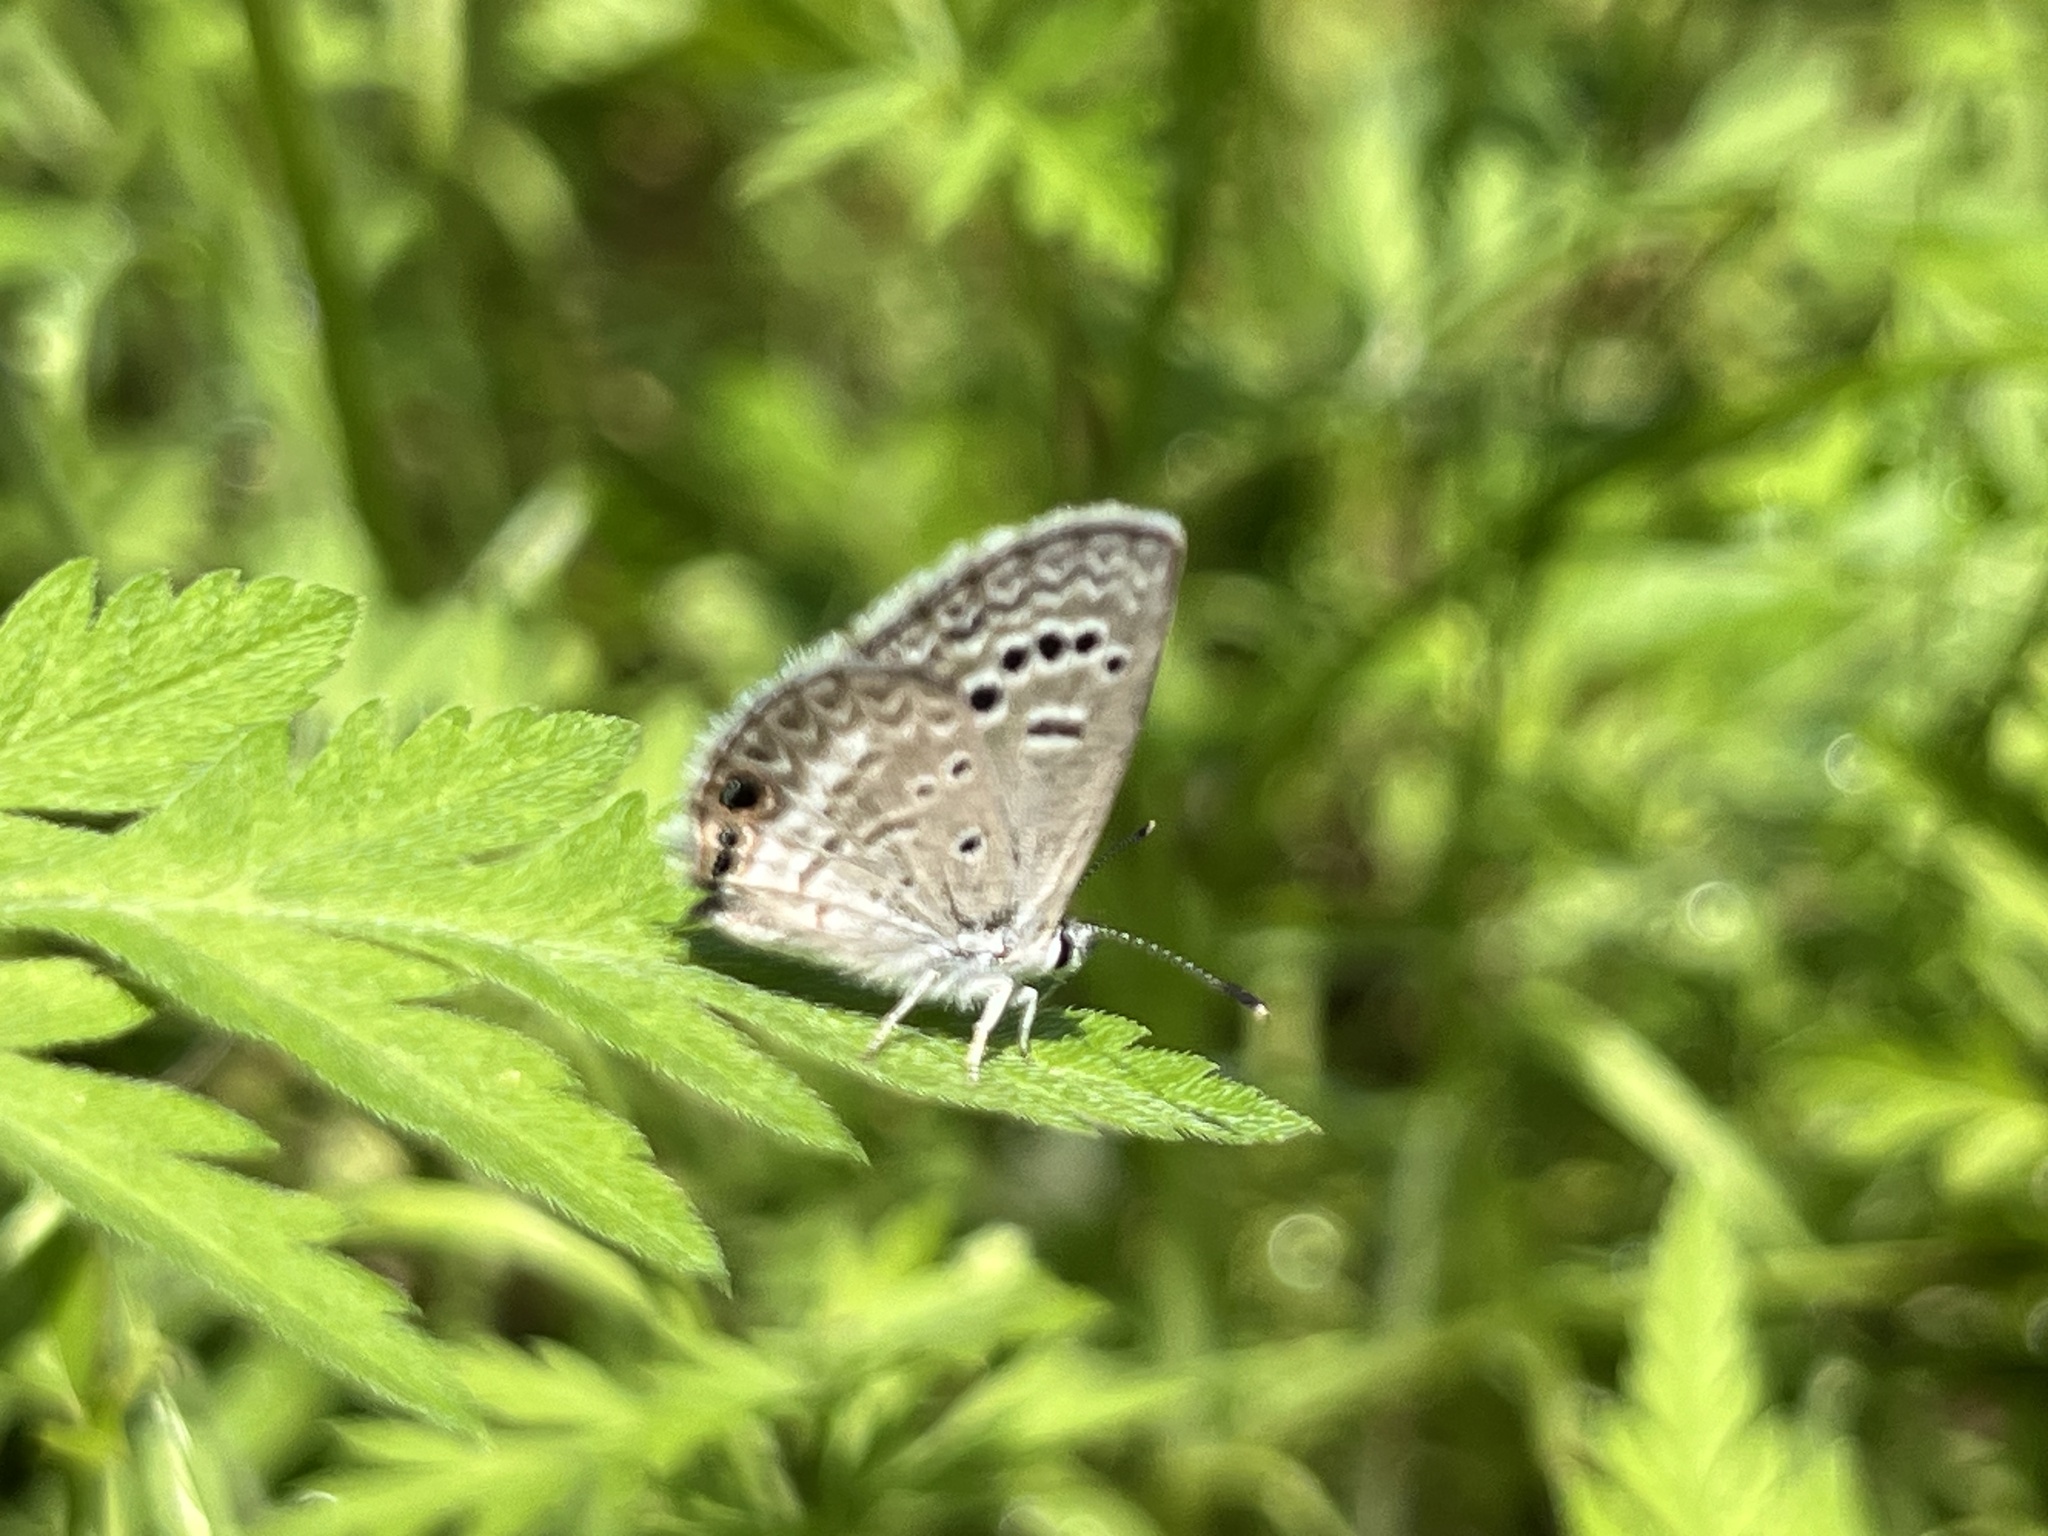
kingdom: Animalia
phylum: Arthropoda
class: Insecta
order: Lepidoptera
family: Lycaenidae
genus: Echinargus
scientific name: Echinargus isola
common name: Reakirt's blue
